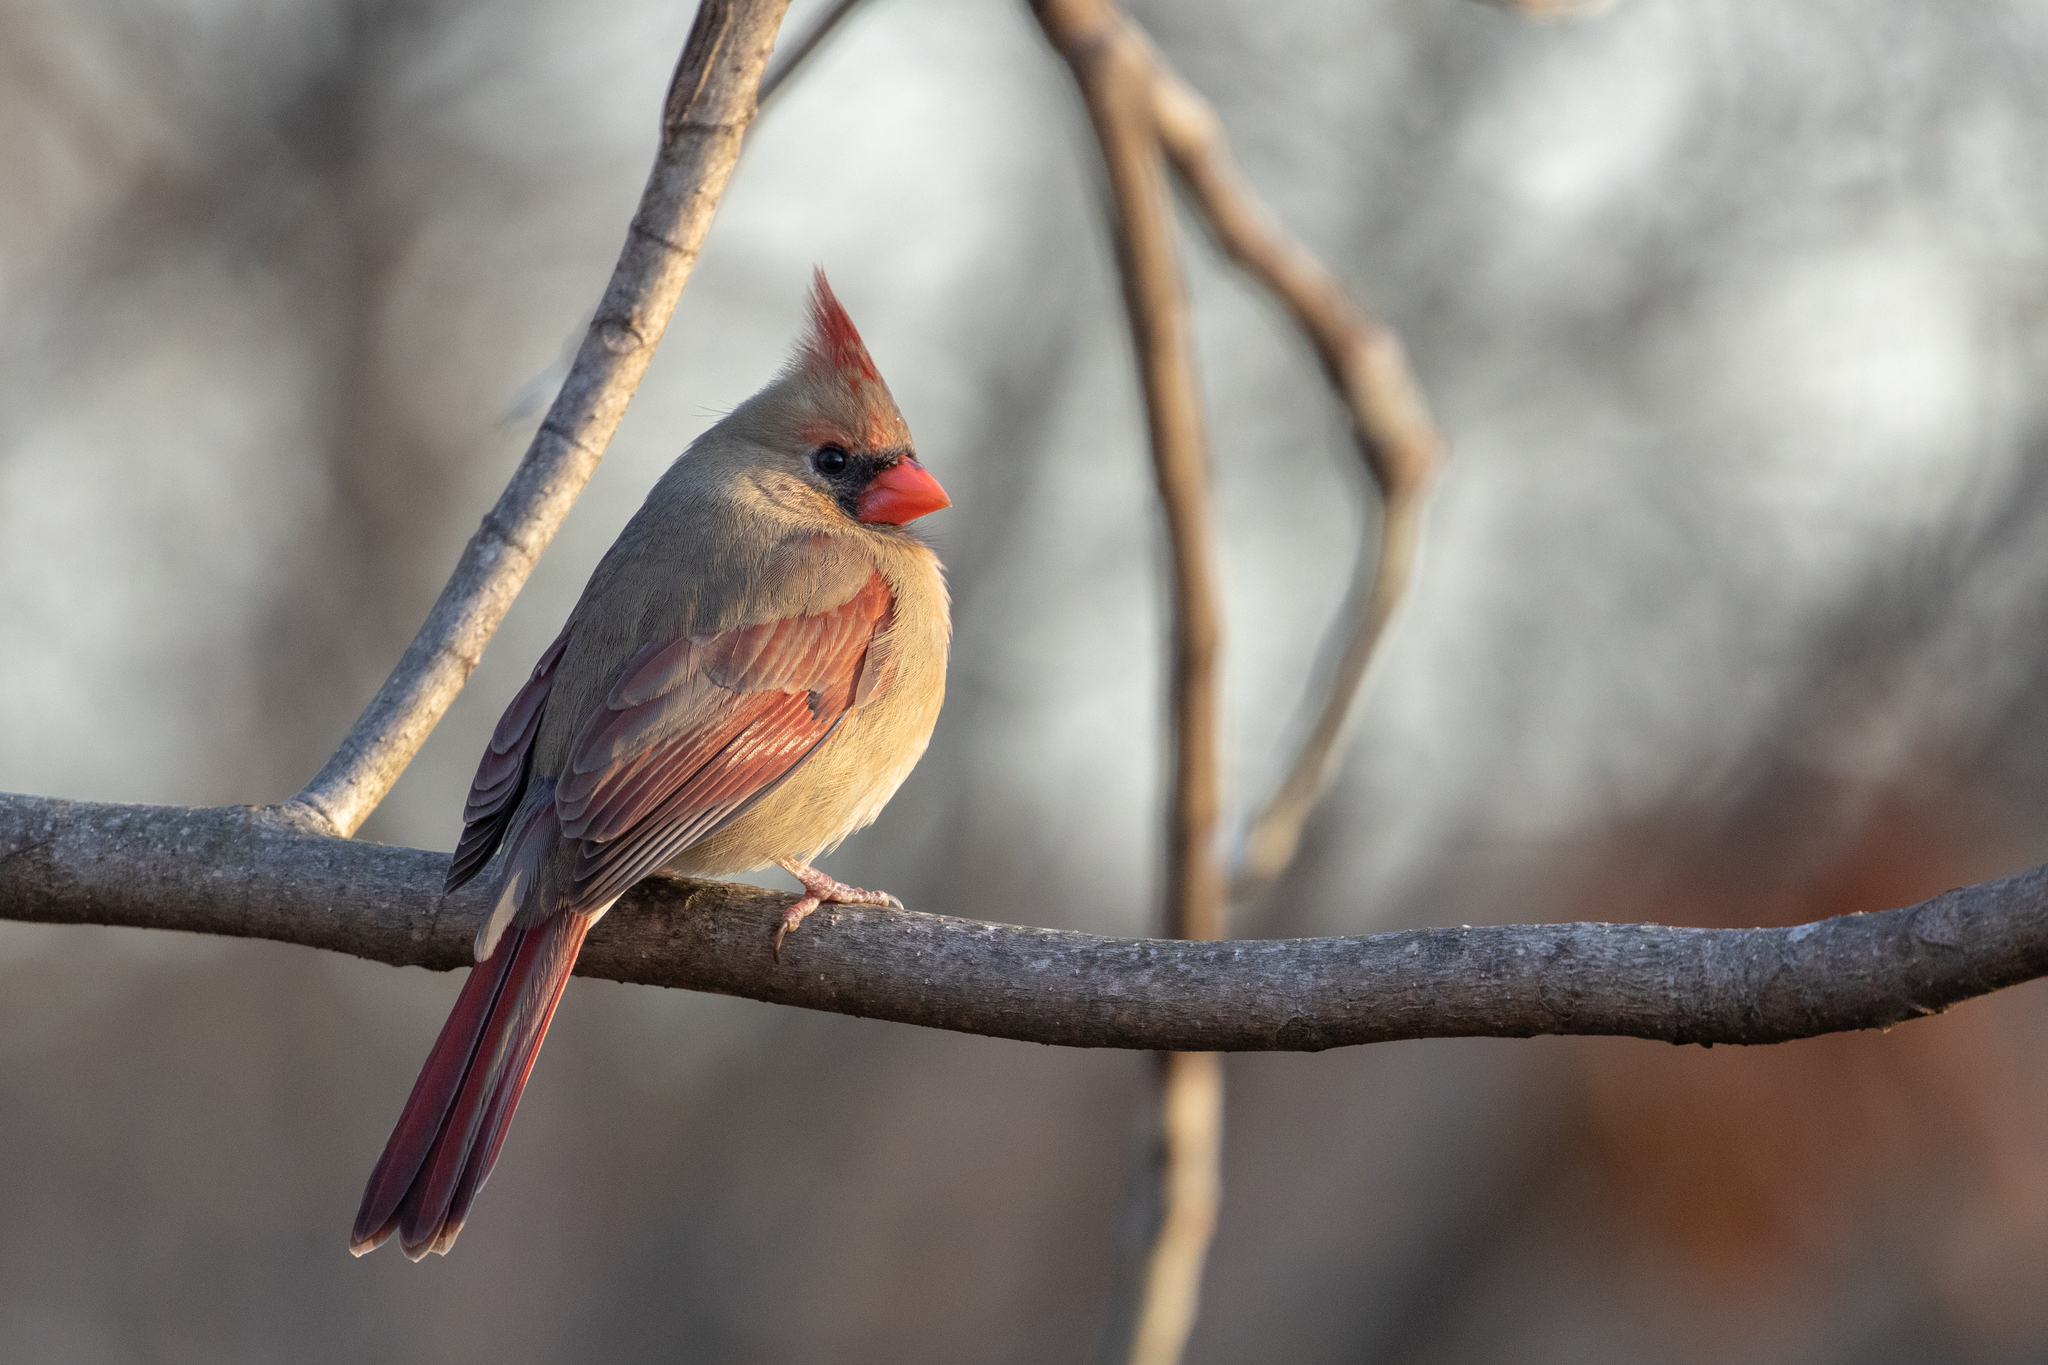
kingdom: Animalia
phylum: Chordata
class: Aves
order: Passeriformes
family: Cardinalidae
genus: Cardinalis
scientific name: Cardinalis cardinalis
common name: Northern cardinal
